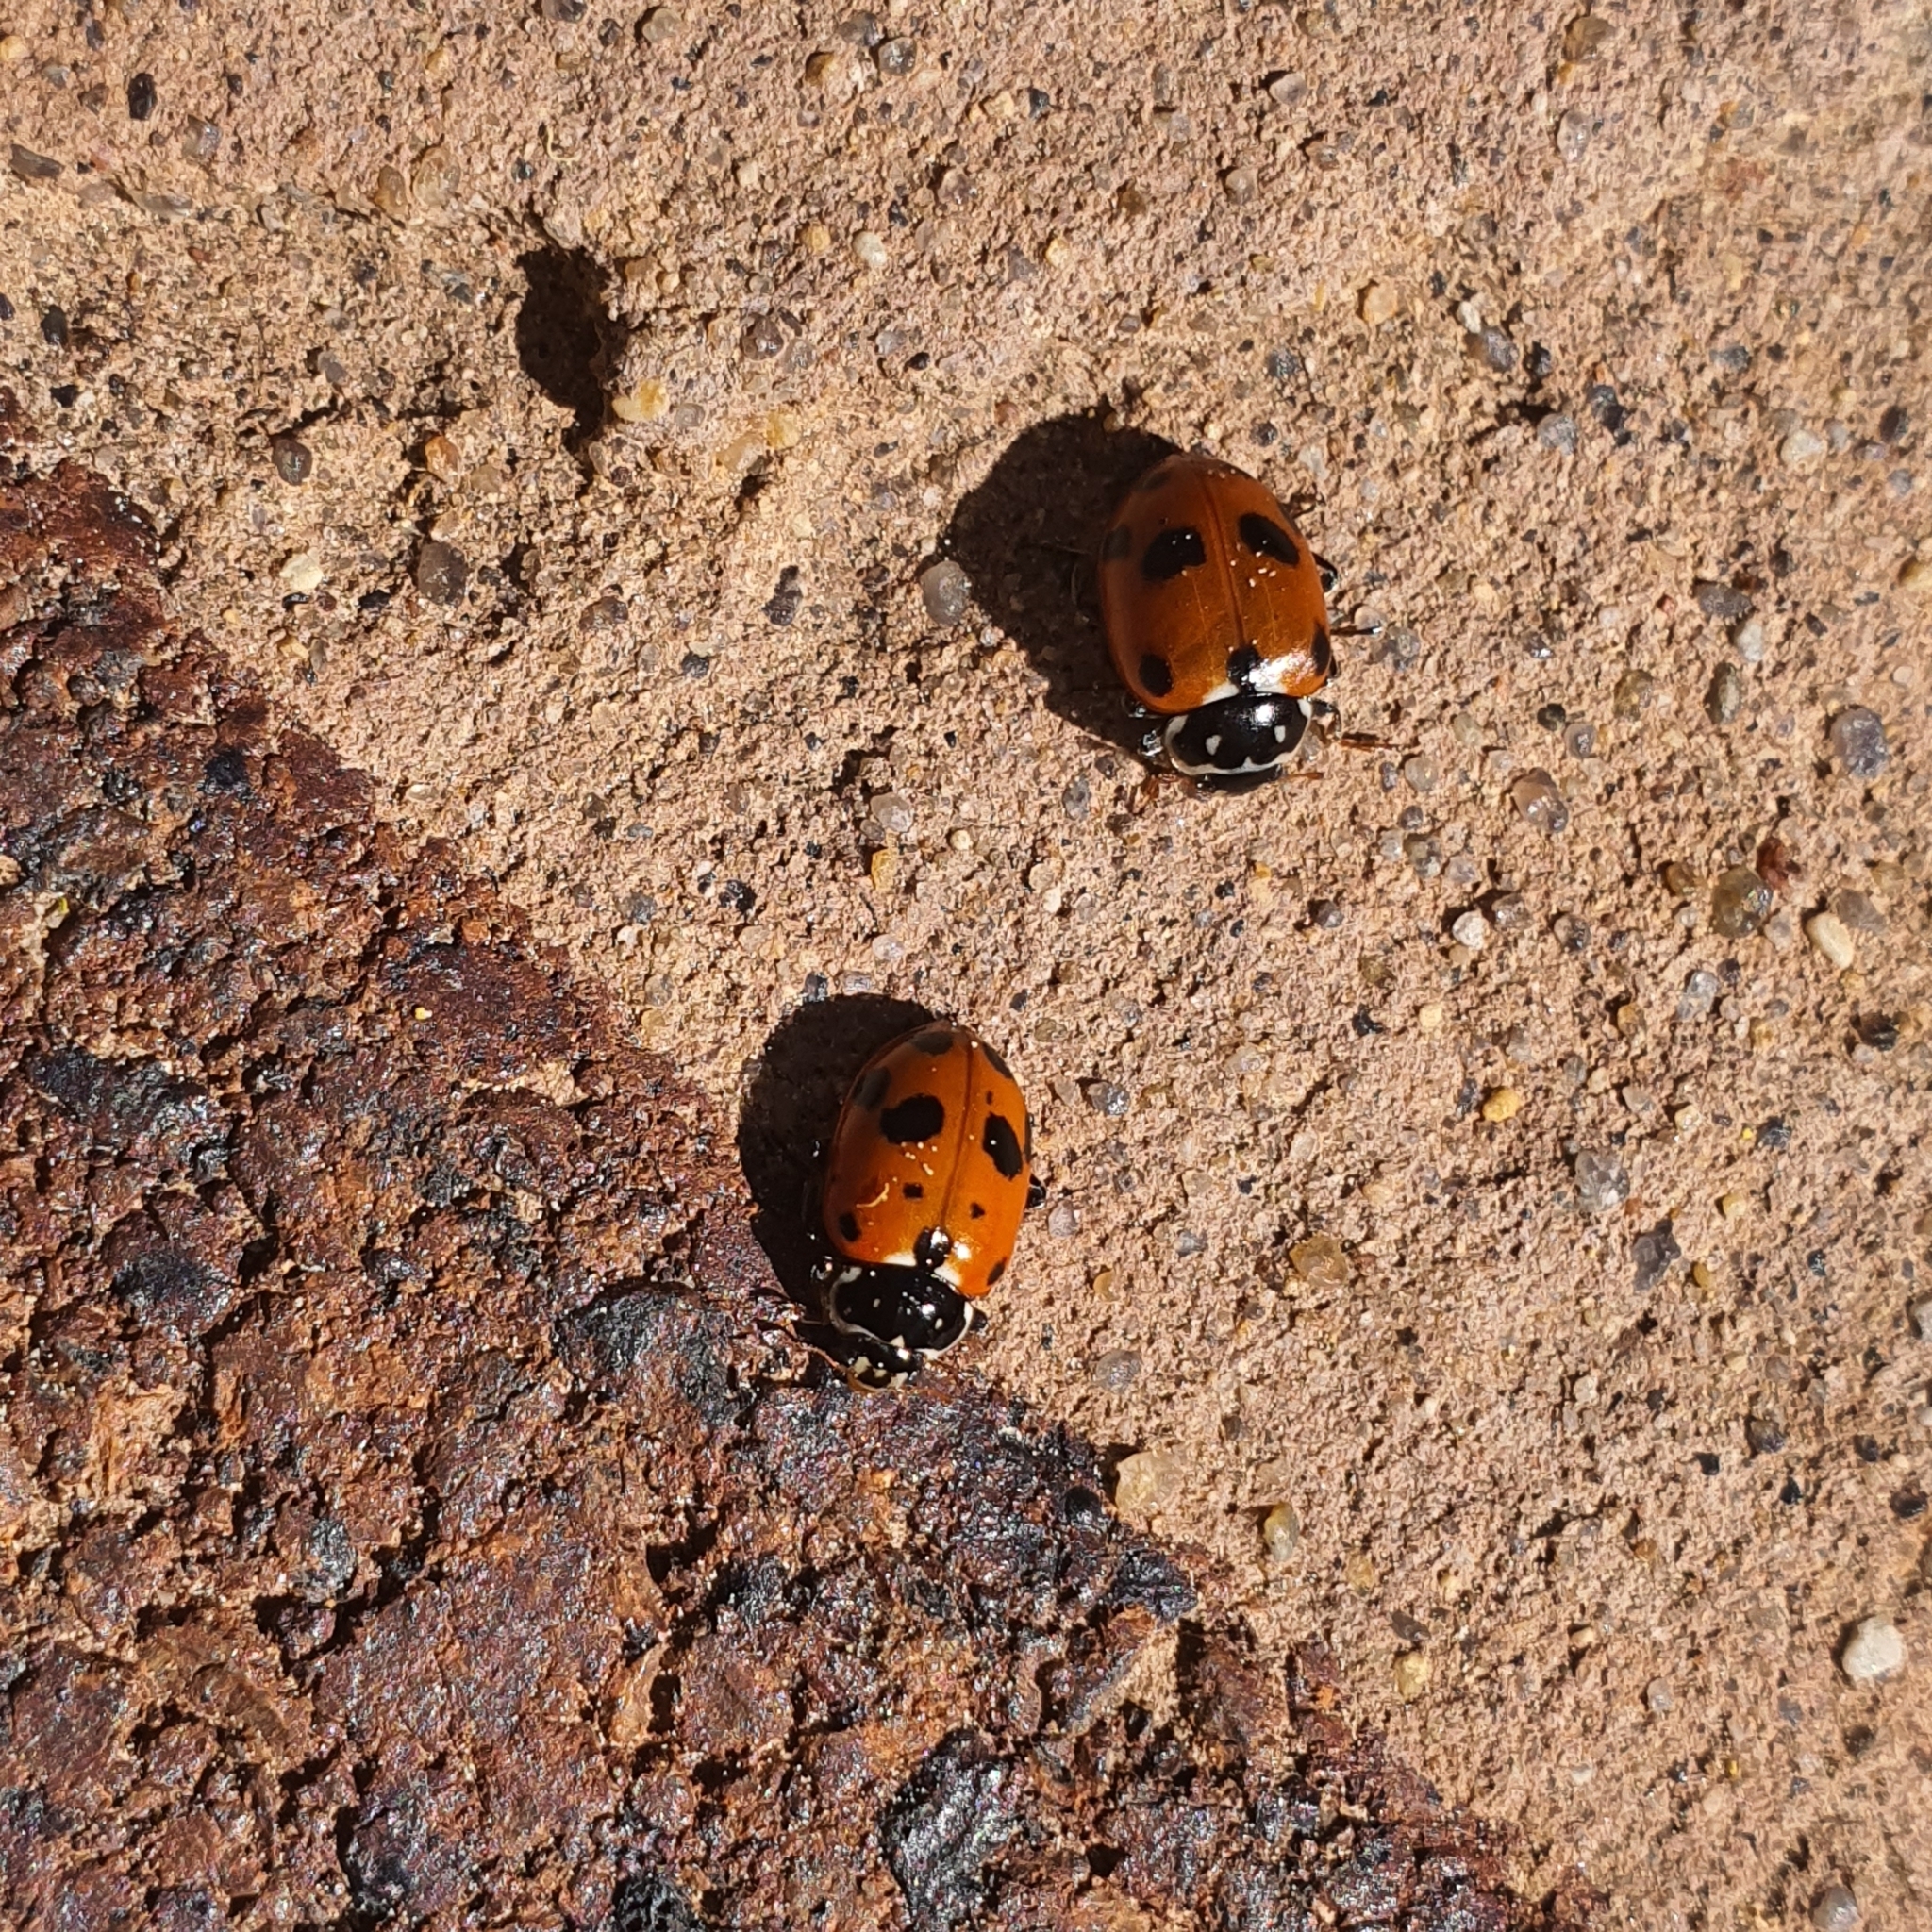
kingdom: Animalia
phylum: Arthropoda
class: Insecta
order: Coleoptera
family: Coccinellidae
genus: Hippodamia
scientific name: Hippodamia variegata
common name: Ladybird beetle
